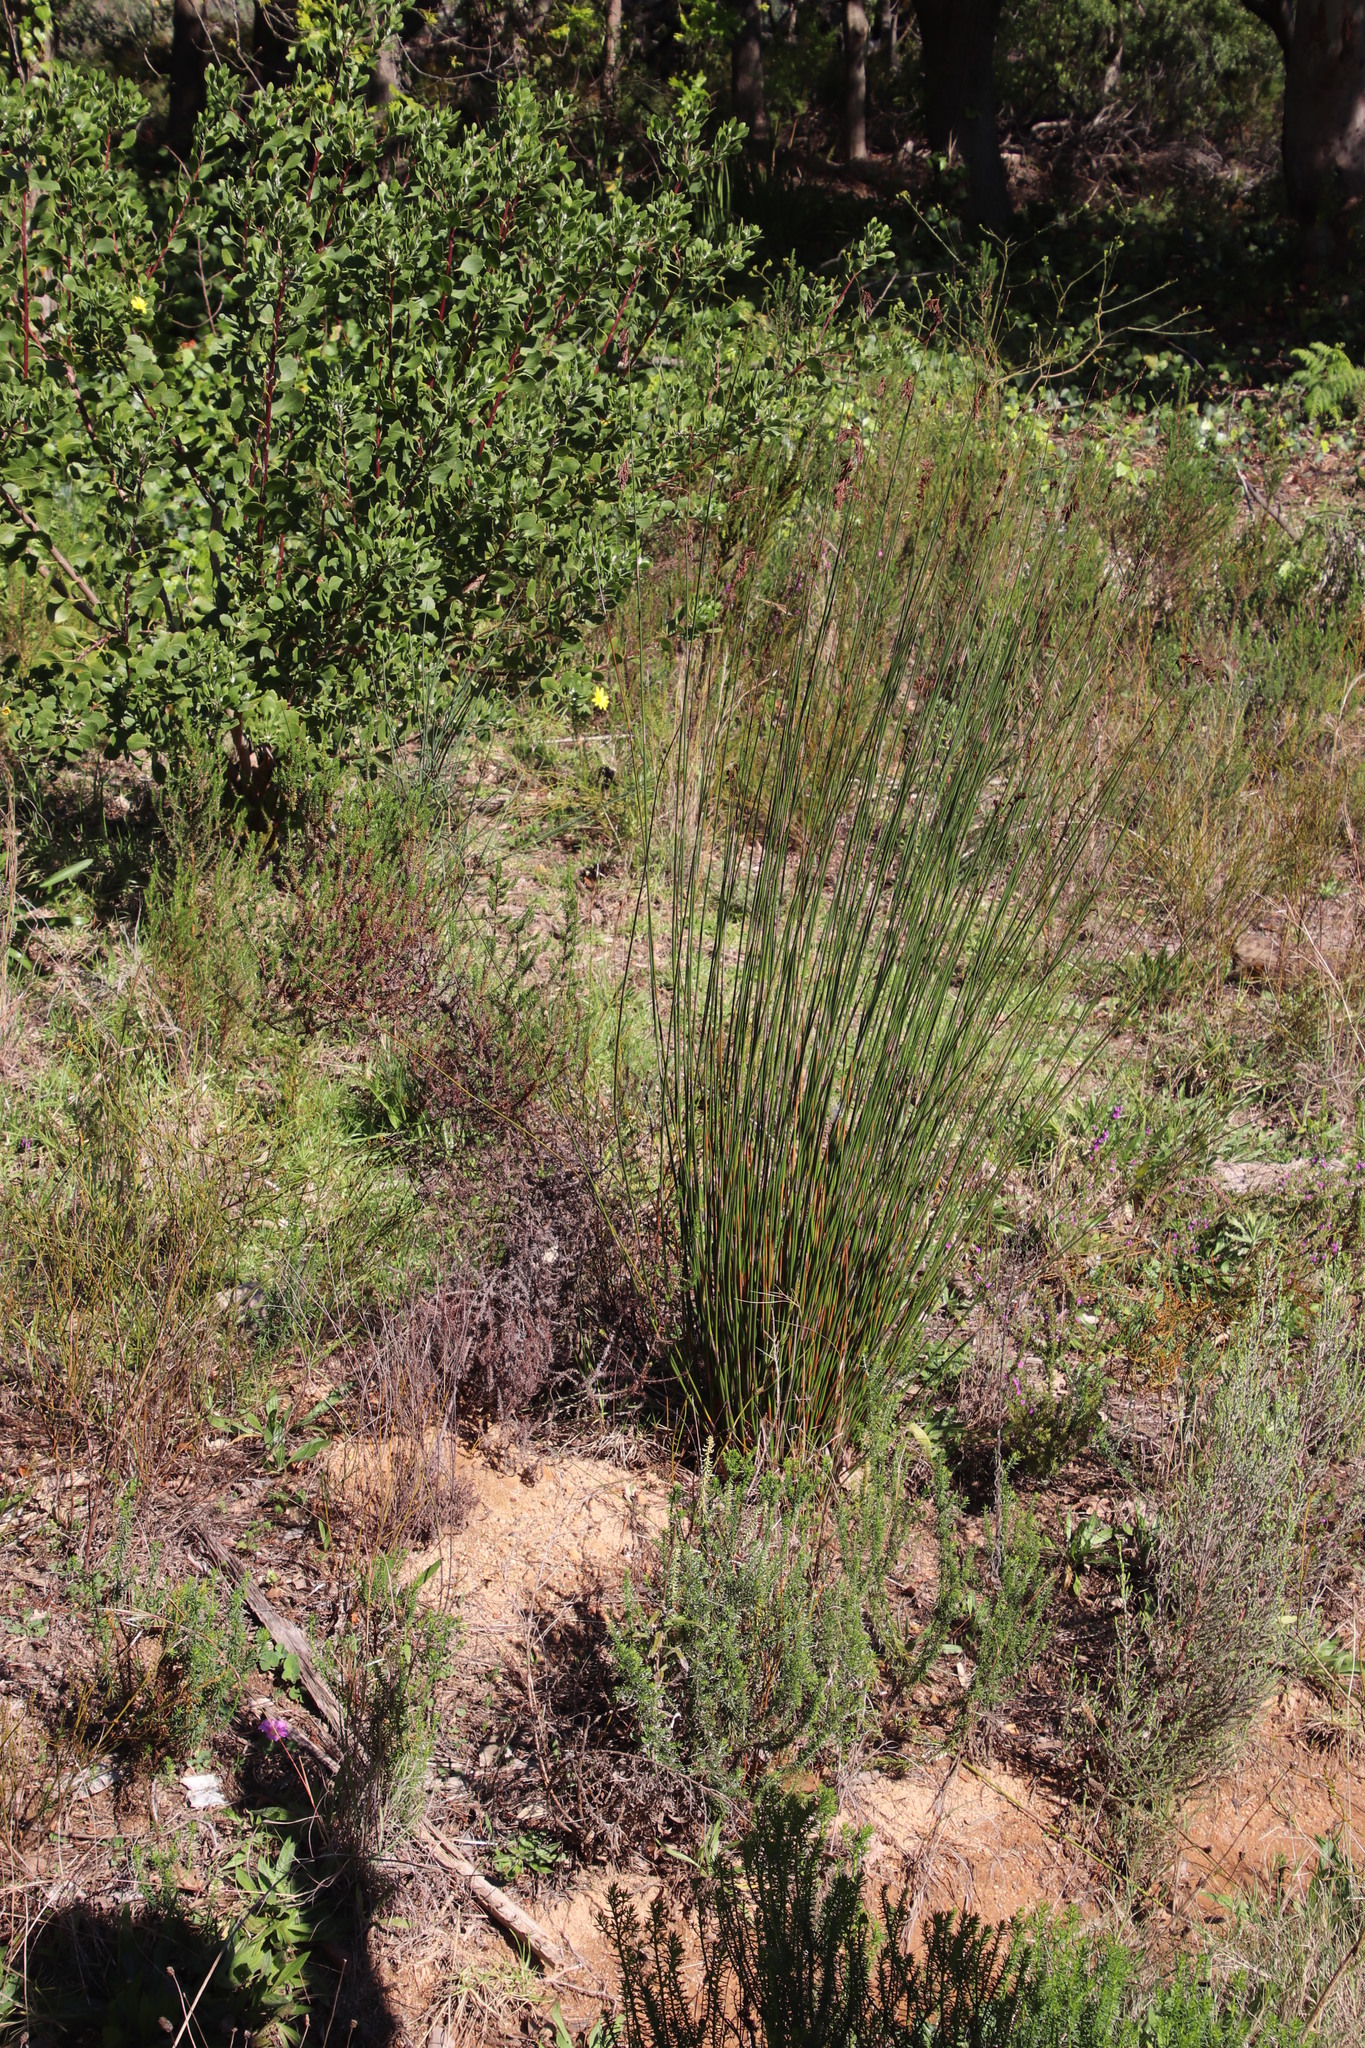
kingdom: Plantae
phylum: Tracheophyta
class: Liliopsida
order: Poales
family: Restionaceae
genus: Thamnochortus
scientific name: Thamnochortus insignis
